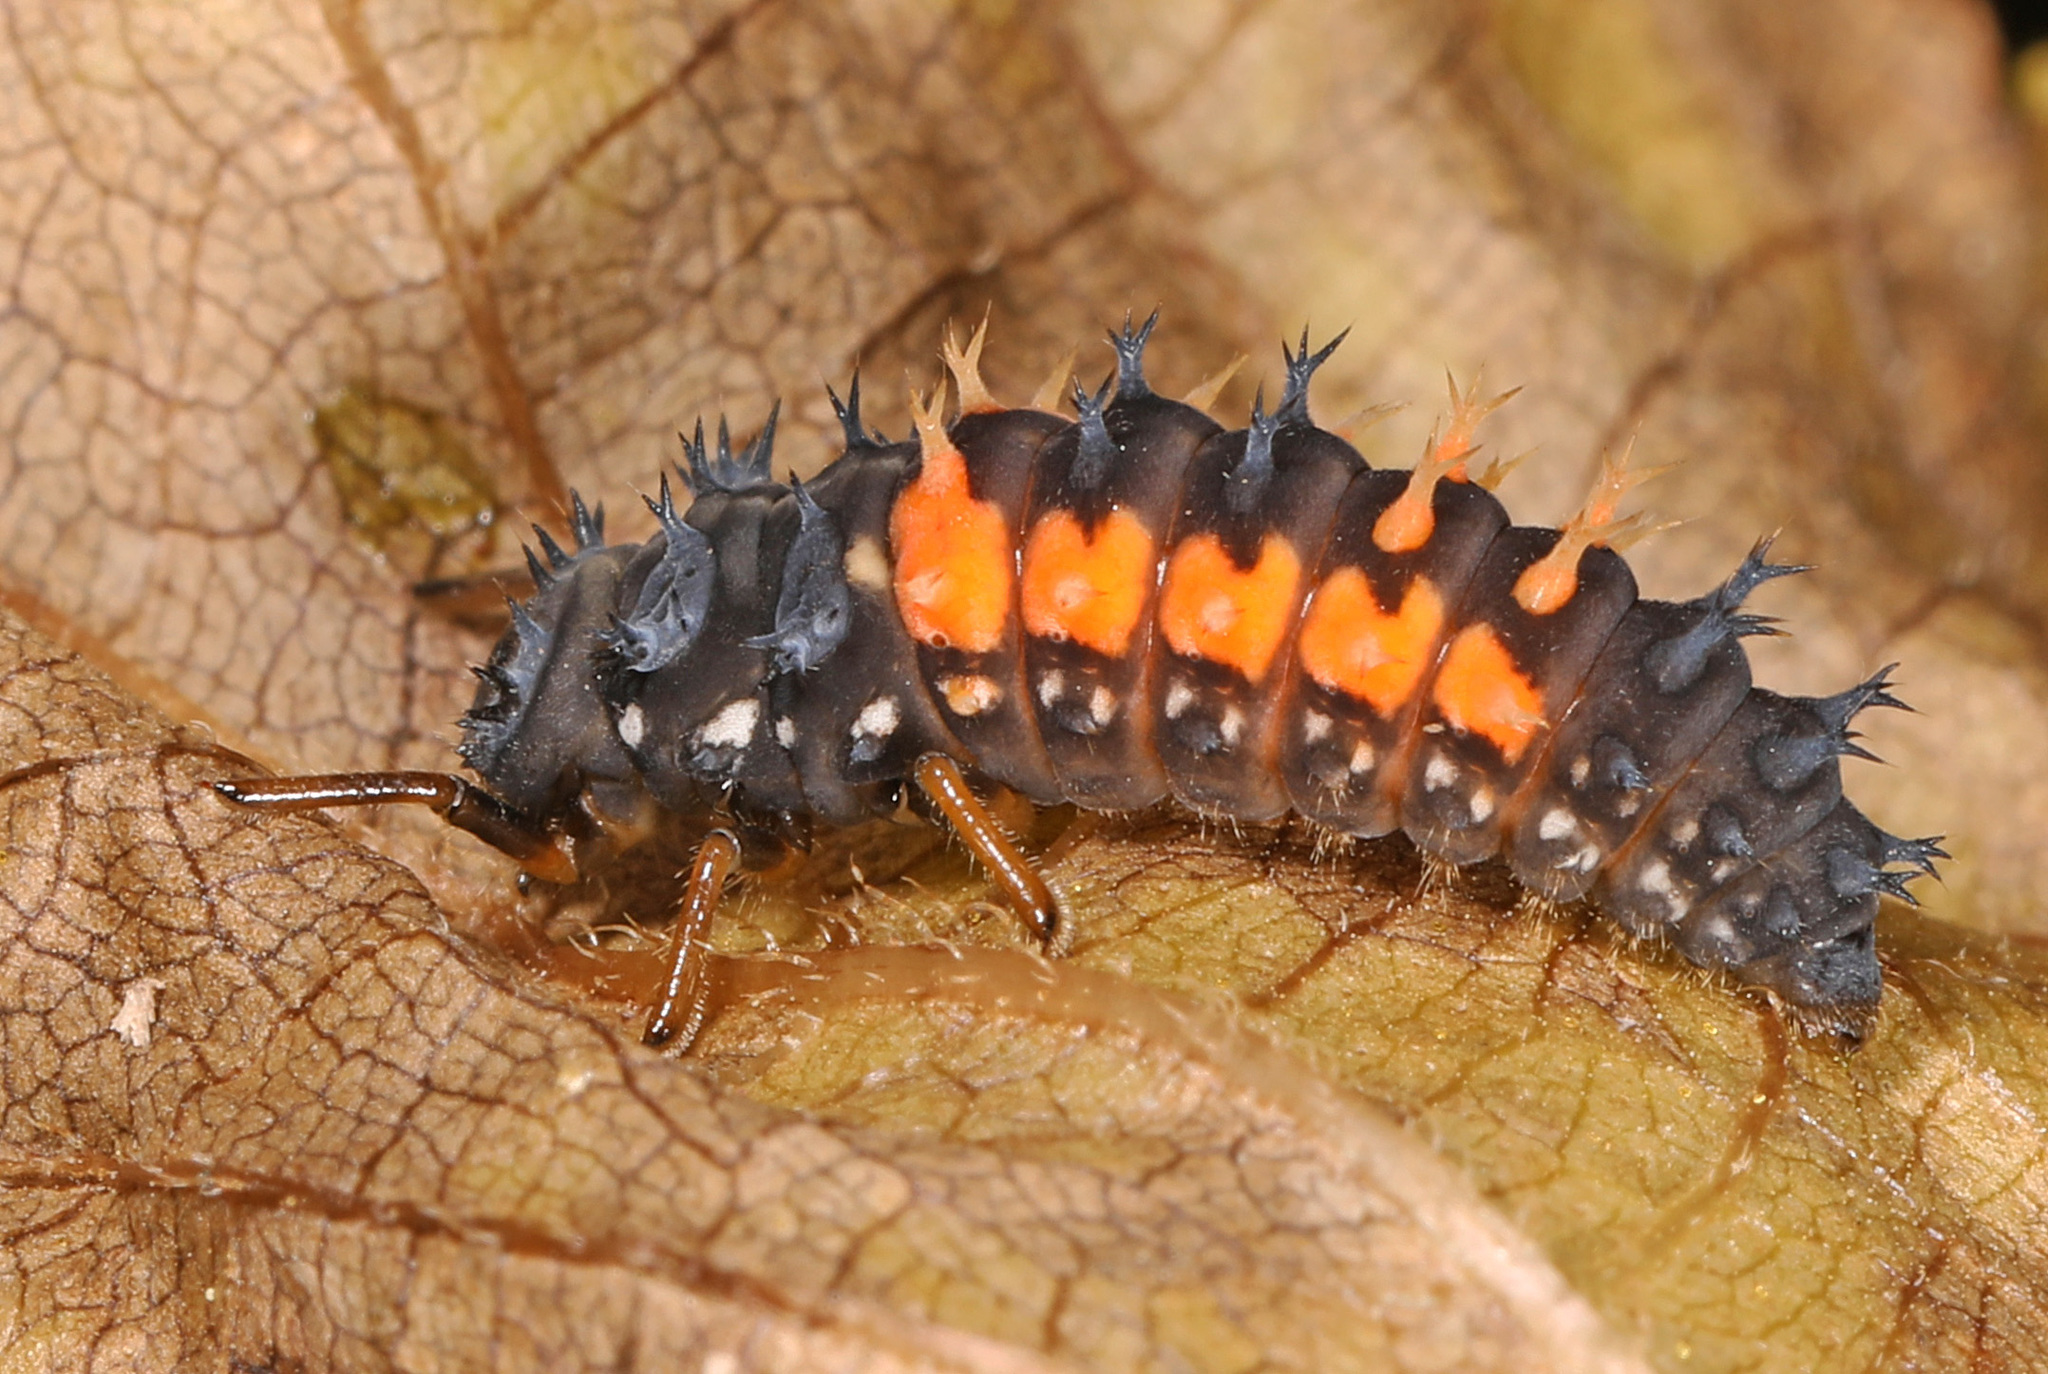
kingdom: Animalia
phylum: Arthropoda
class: Insecta
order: Coleoptera
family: Coccinellidae
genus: Harmonia
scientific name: Harmonia axyridis
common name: Harlequin ladybird
